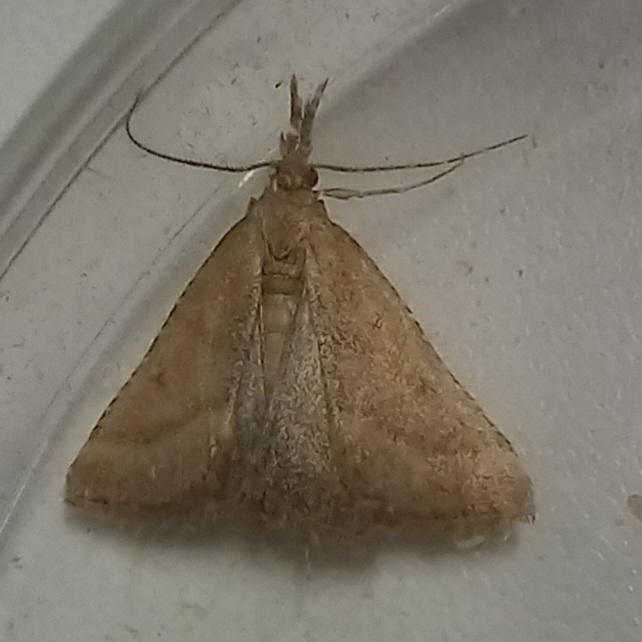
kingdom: Animalia
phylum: Arthropoda
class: Insecta
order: Lepidoptera
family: Pyralidae
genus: Synaphe
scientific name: Synaphe punctalis
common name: Long-legged tabby
